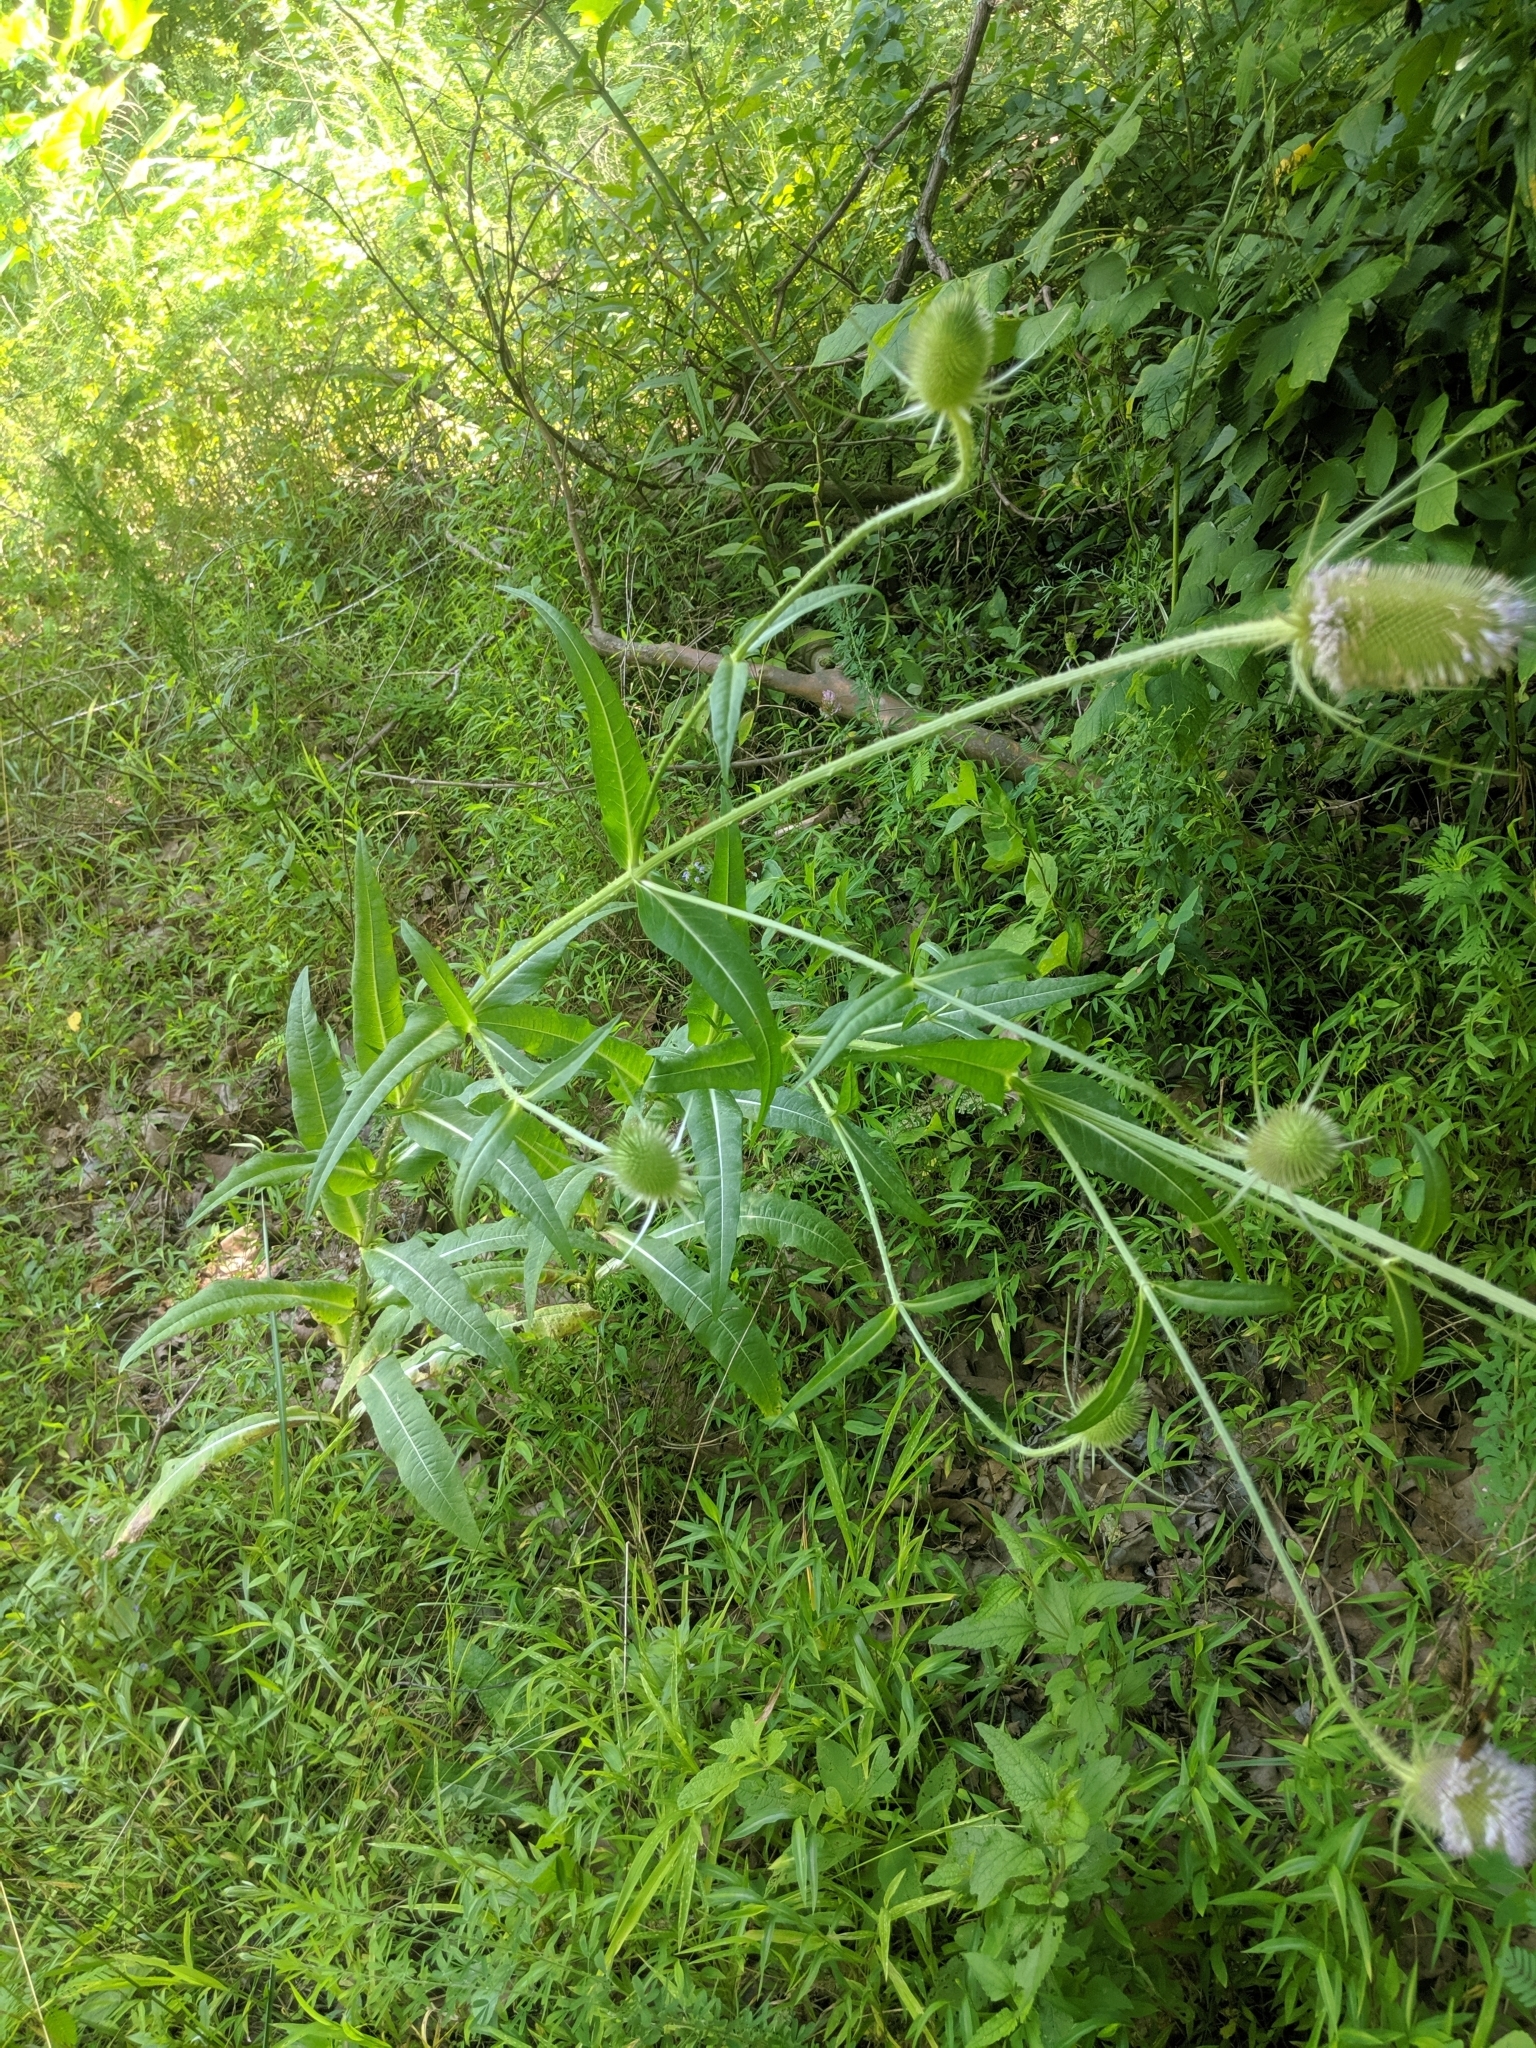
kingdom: Plantae
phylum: Tracheophyta
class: Magnoliopsida
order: Dipsacales
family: Caprifoliaceae
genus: Dipsacus
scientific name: Dipsacus fullonum
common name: Teasel
